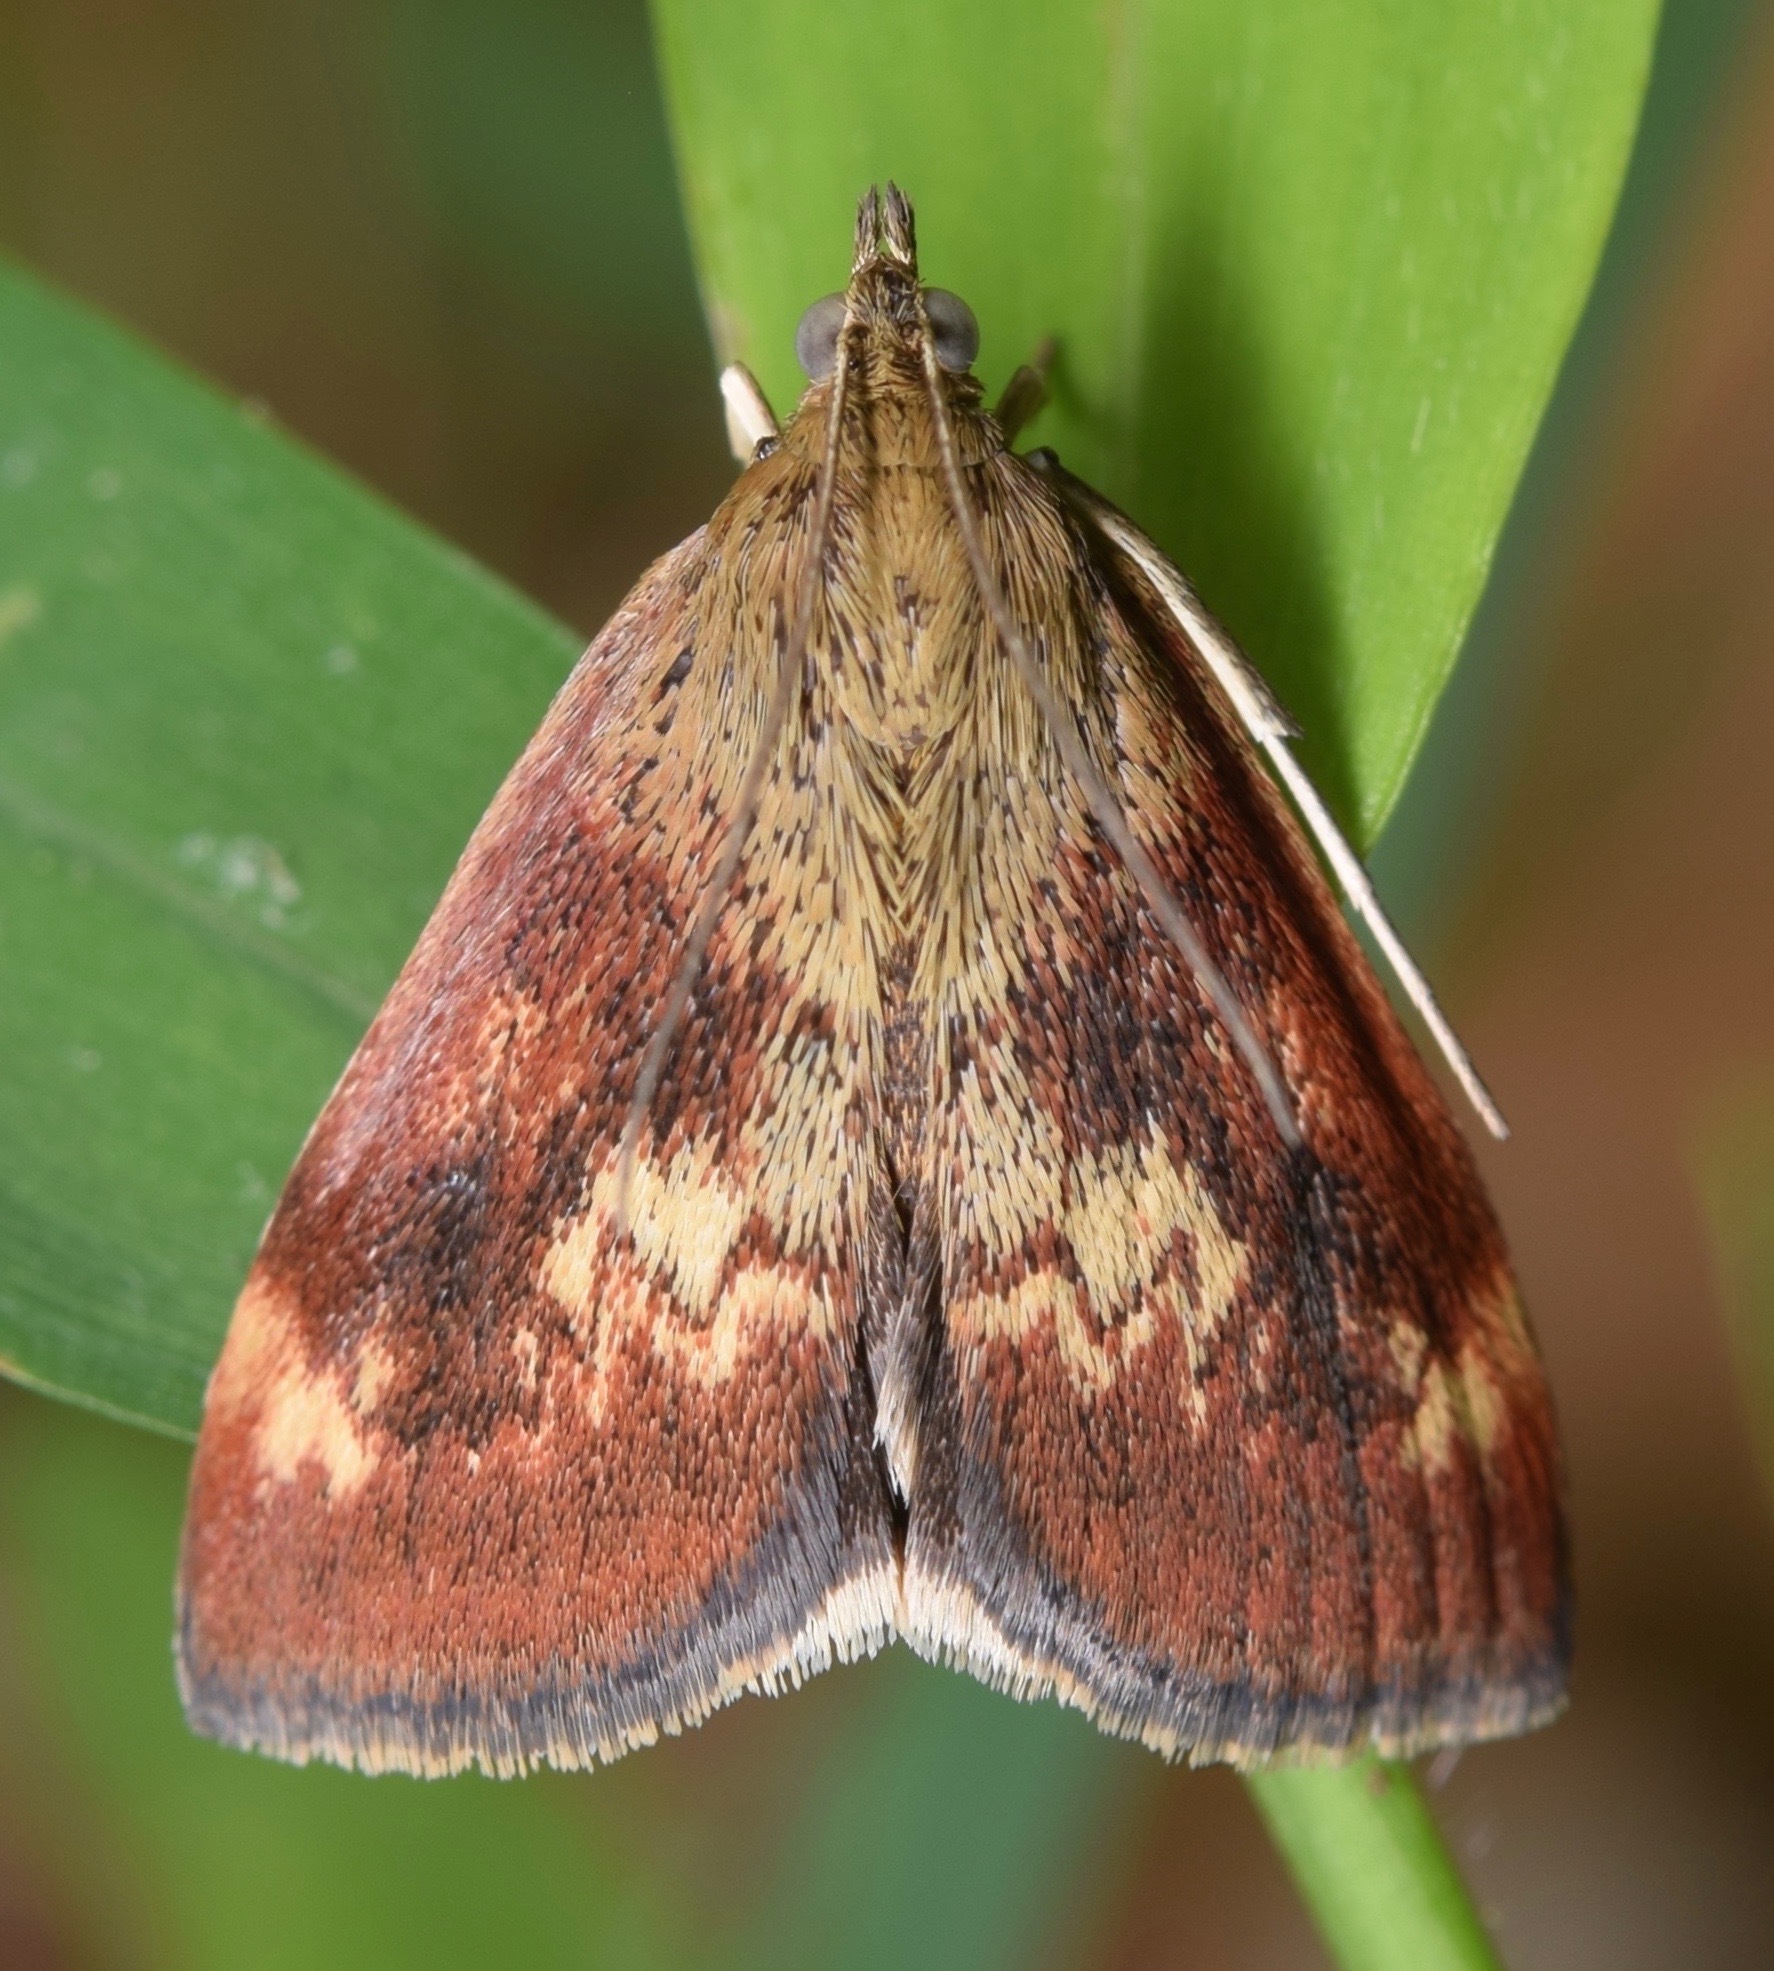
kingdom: Animalia
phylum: Arthropoda
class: Insecta
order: Lepidoptera
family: Crambidae
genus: Pyrausta
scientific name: Pyrausta homonymalis
